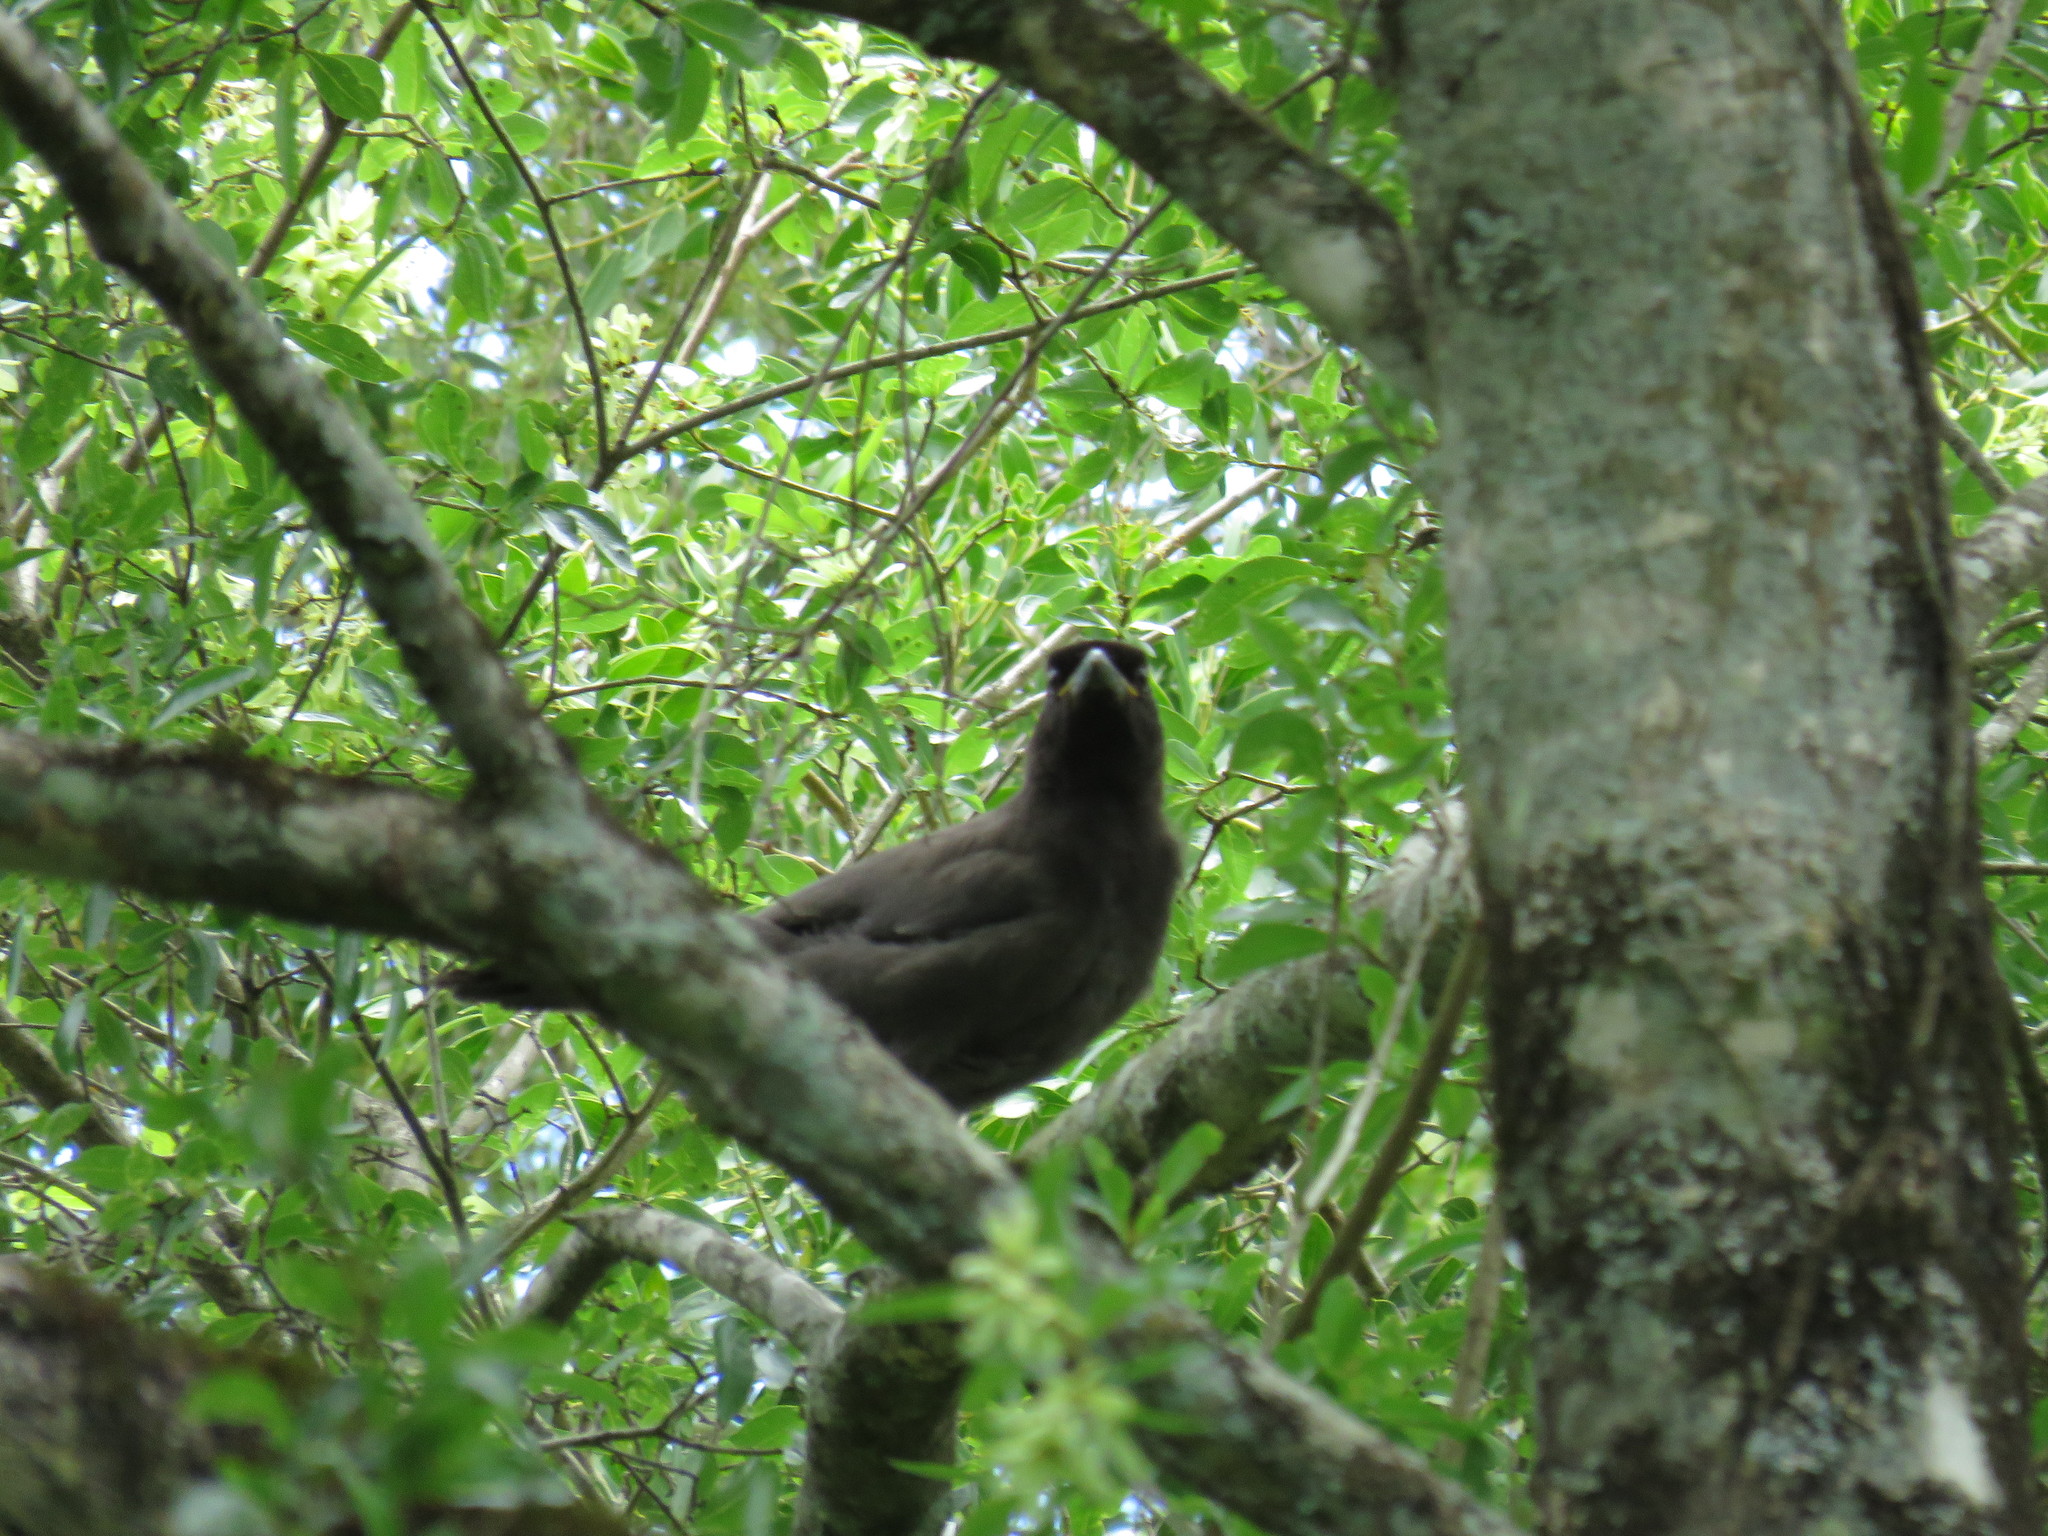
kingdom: Animalia
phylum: Chordata
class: Aves
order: Passeriformes
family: Corvidae
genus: Cyanocorax
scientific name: Cyanocorax cyanomelas
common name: Purplish jay
